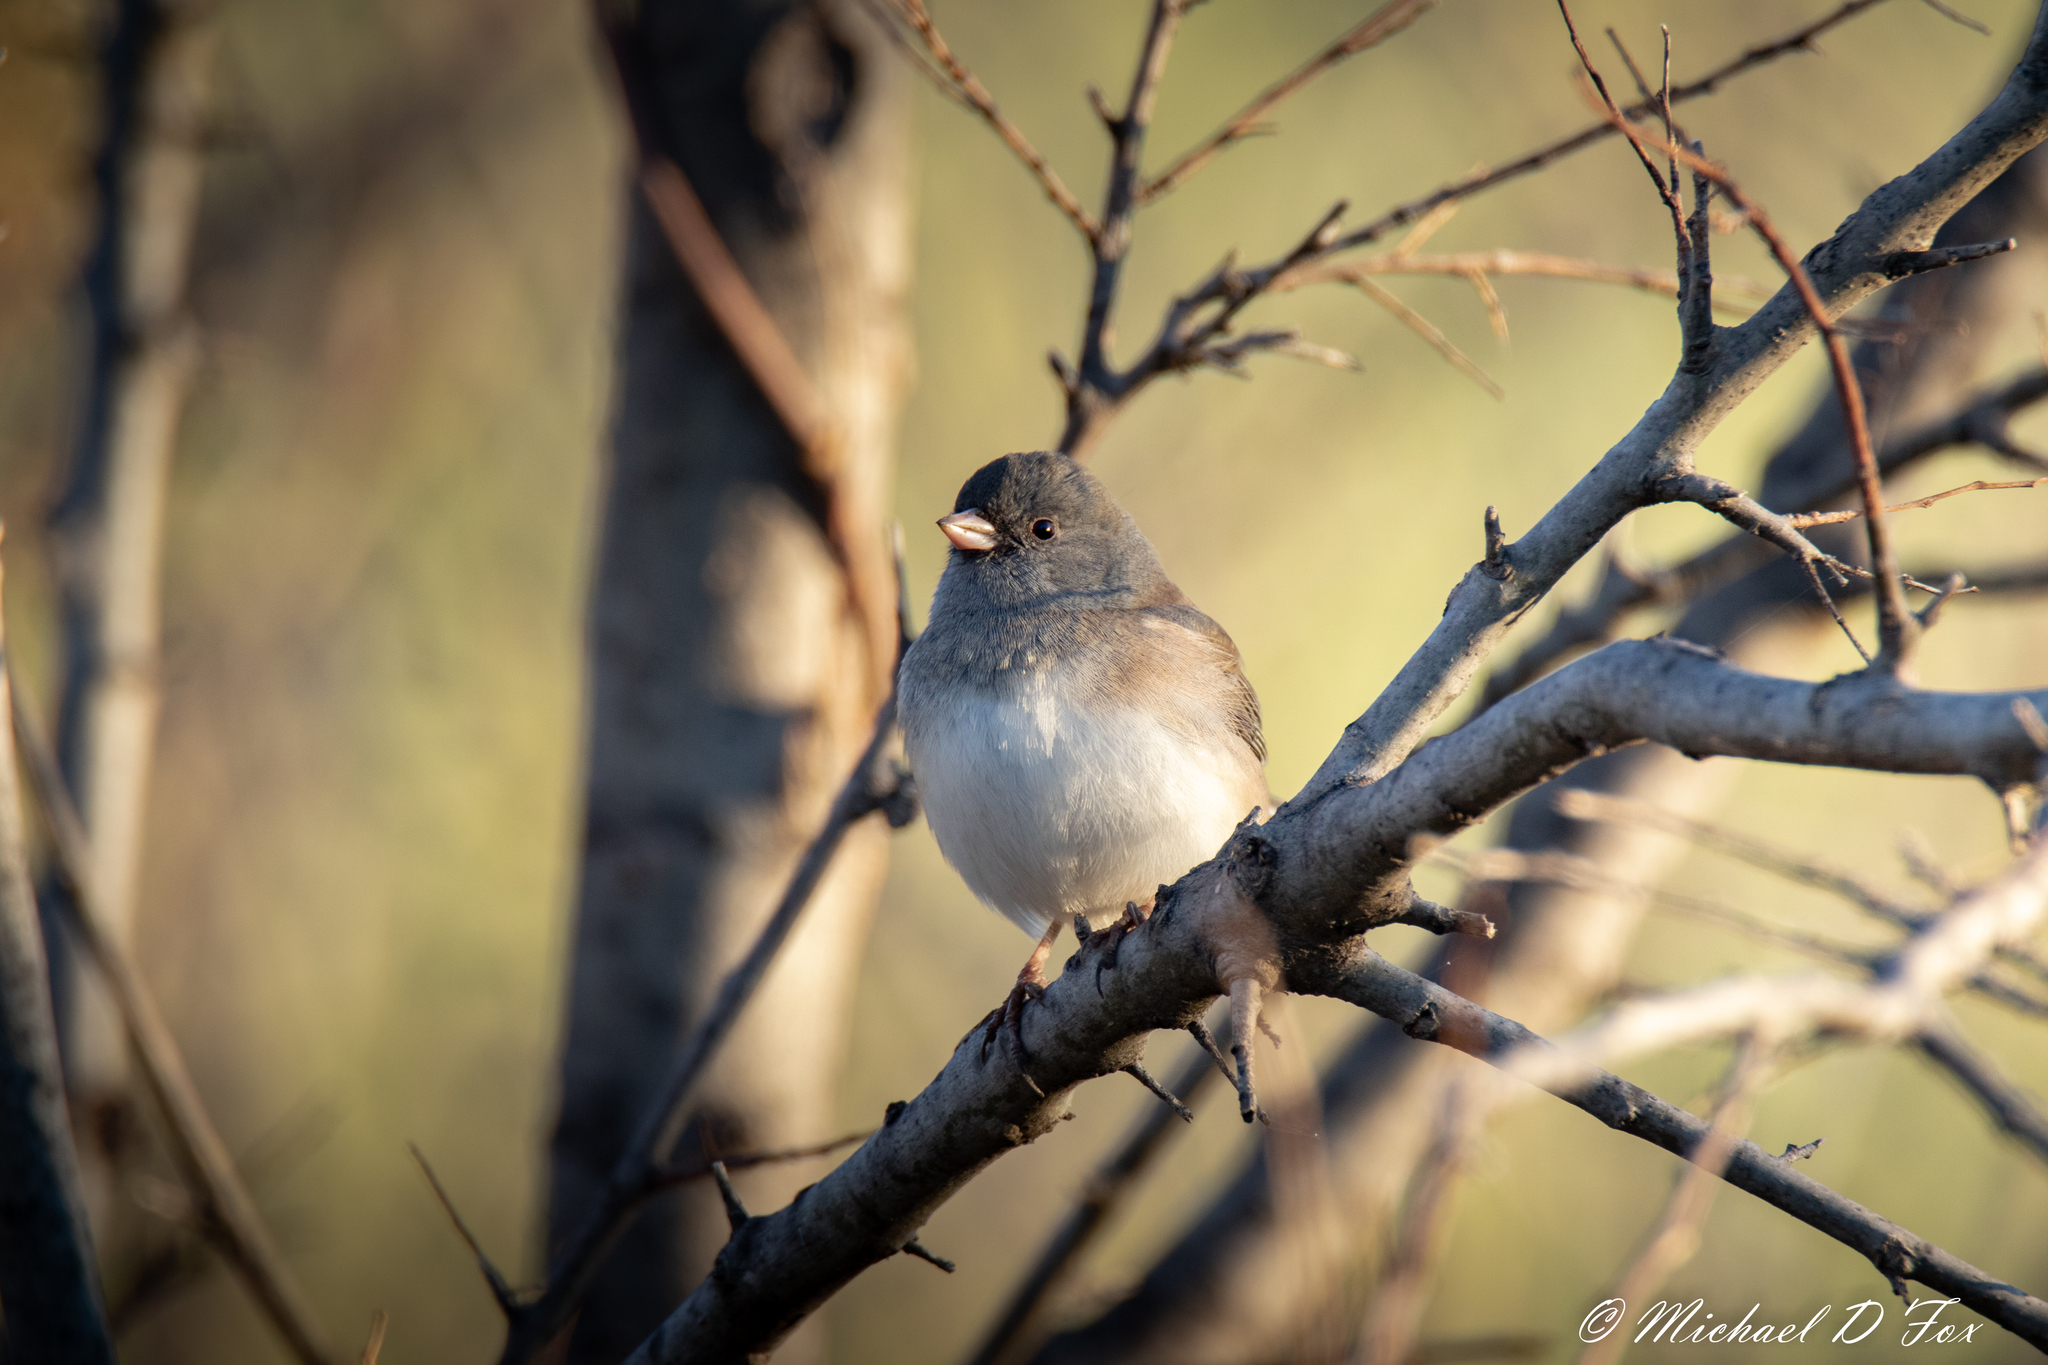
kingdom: Animalia
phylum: Chordata
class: Aves
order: Passeriformes
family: Passerellidae
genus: Junco
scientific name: Junco hyemalis
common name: Dark-eyed junco
